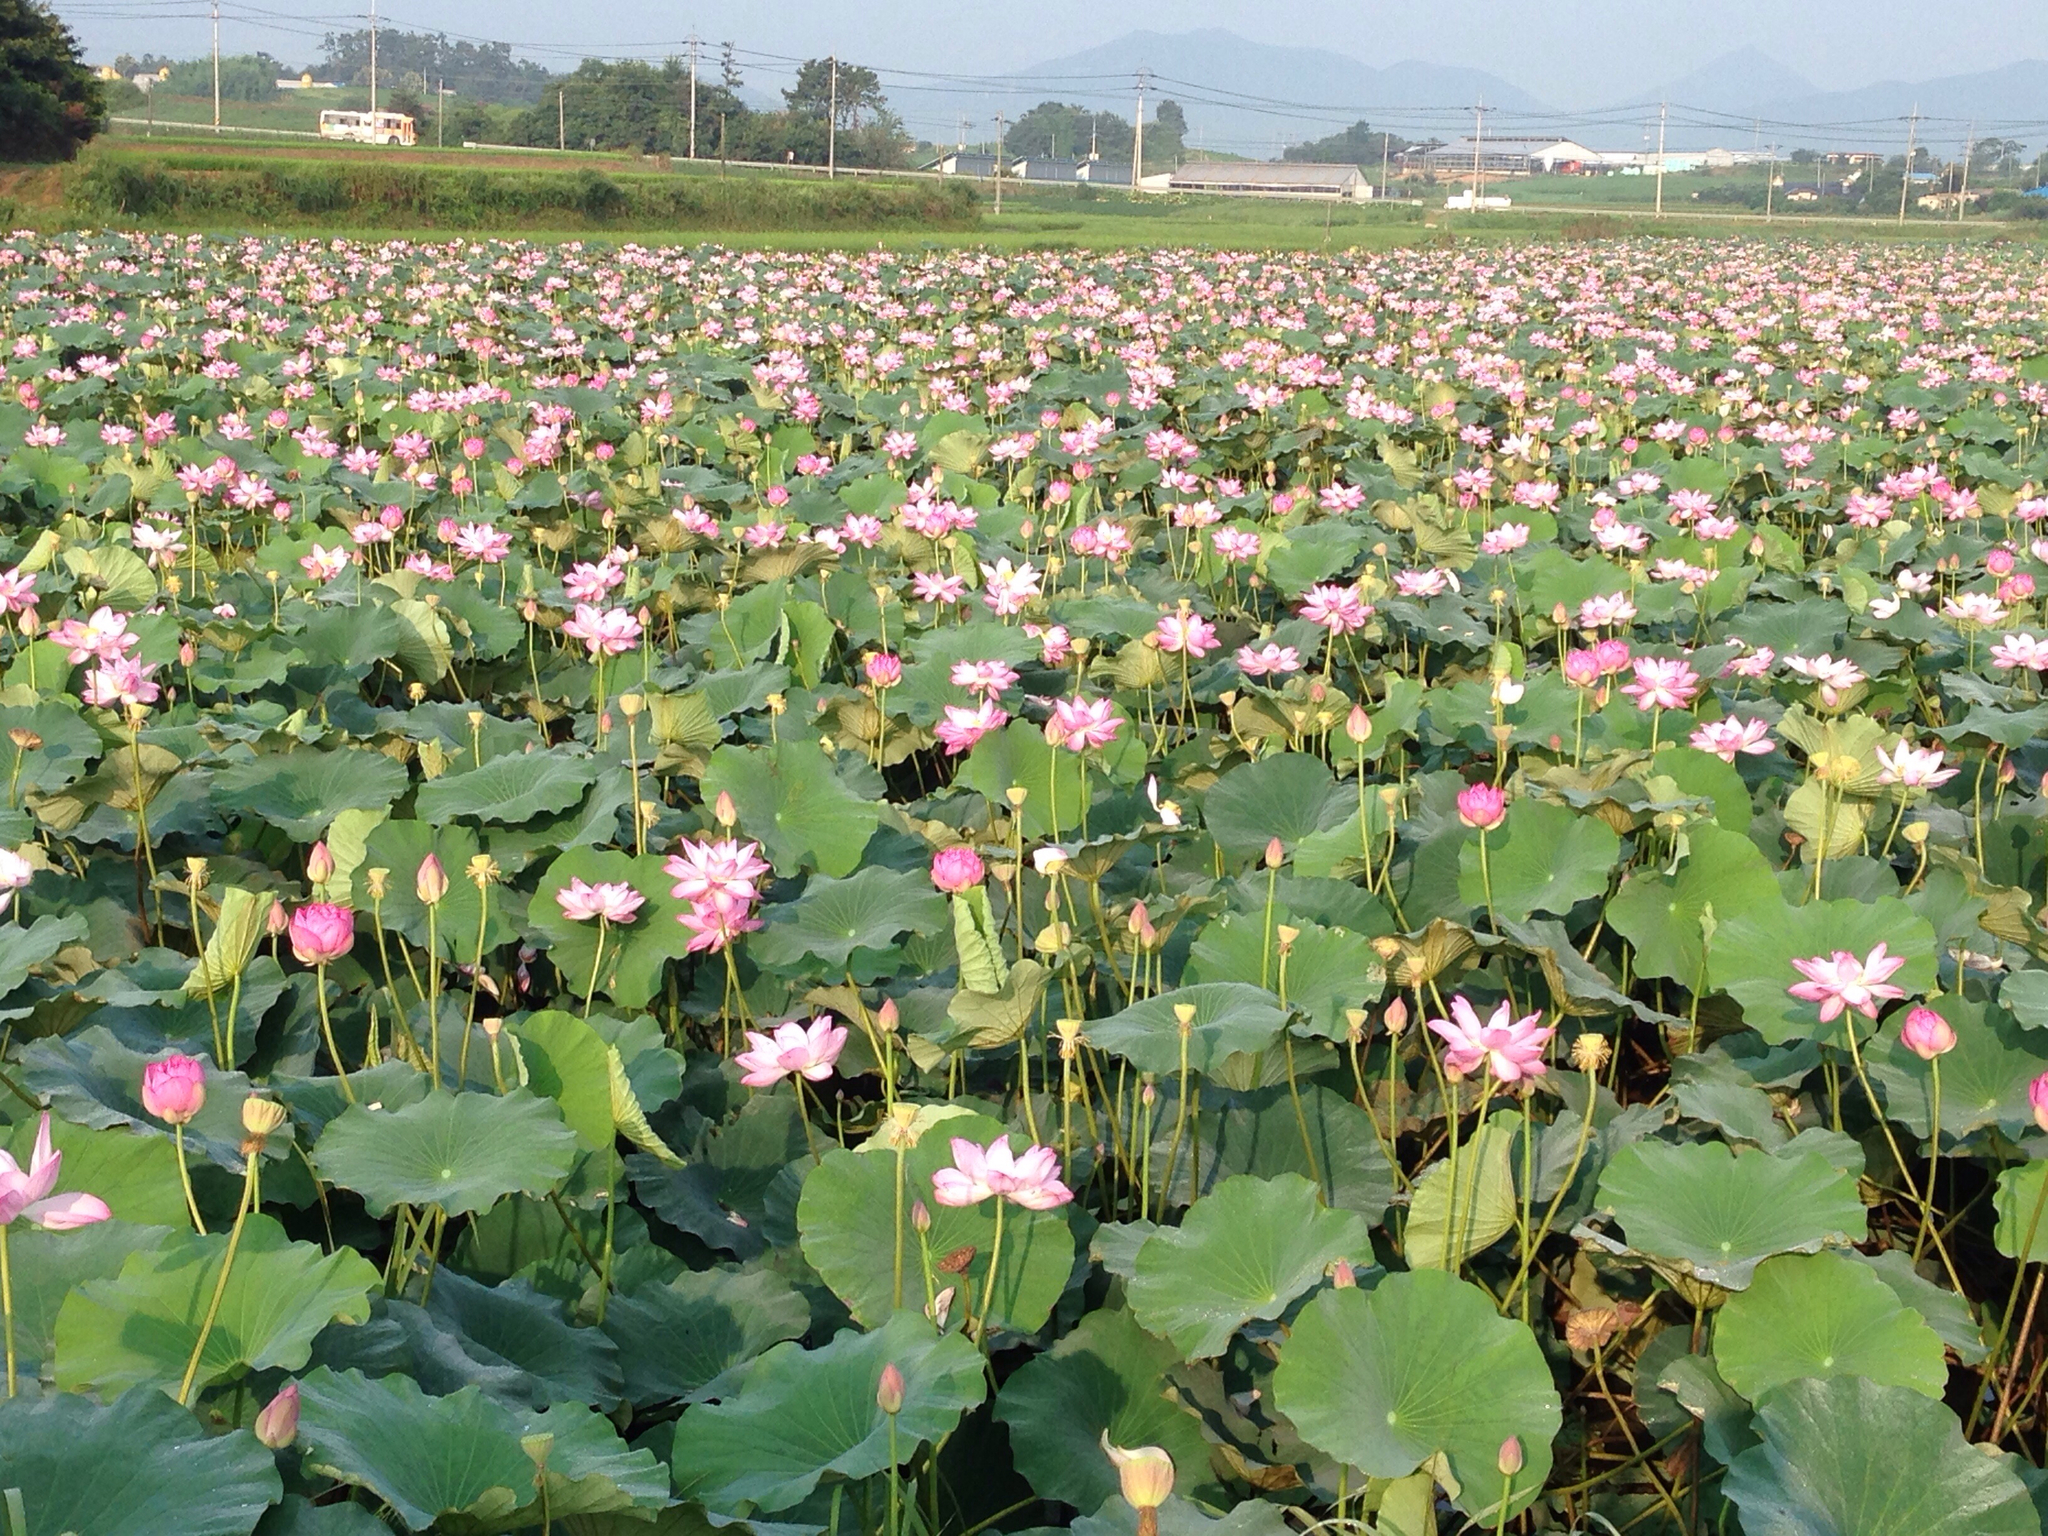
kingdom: Plantae
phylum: Tracheophyta
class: Magnoliopsida
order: Proteales
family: Nelumbonaceae
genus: Nelumbo
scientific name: Nelumbo nucifera
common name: Sacred lotus
